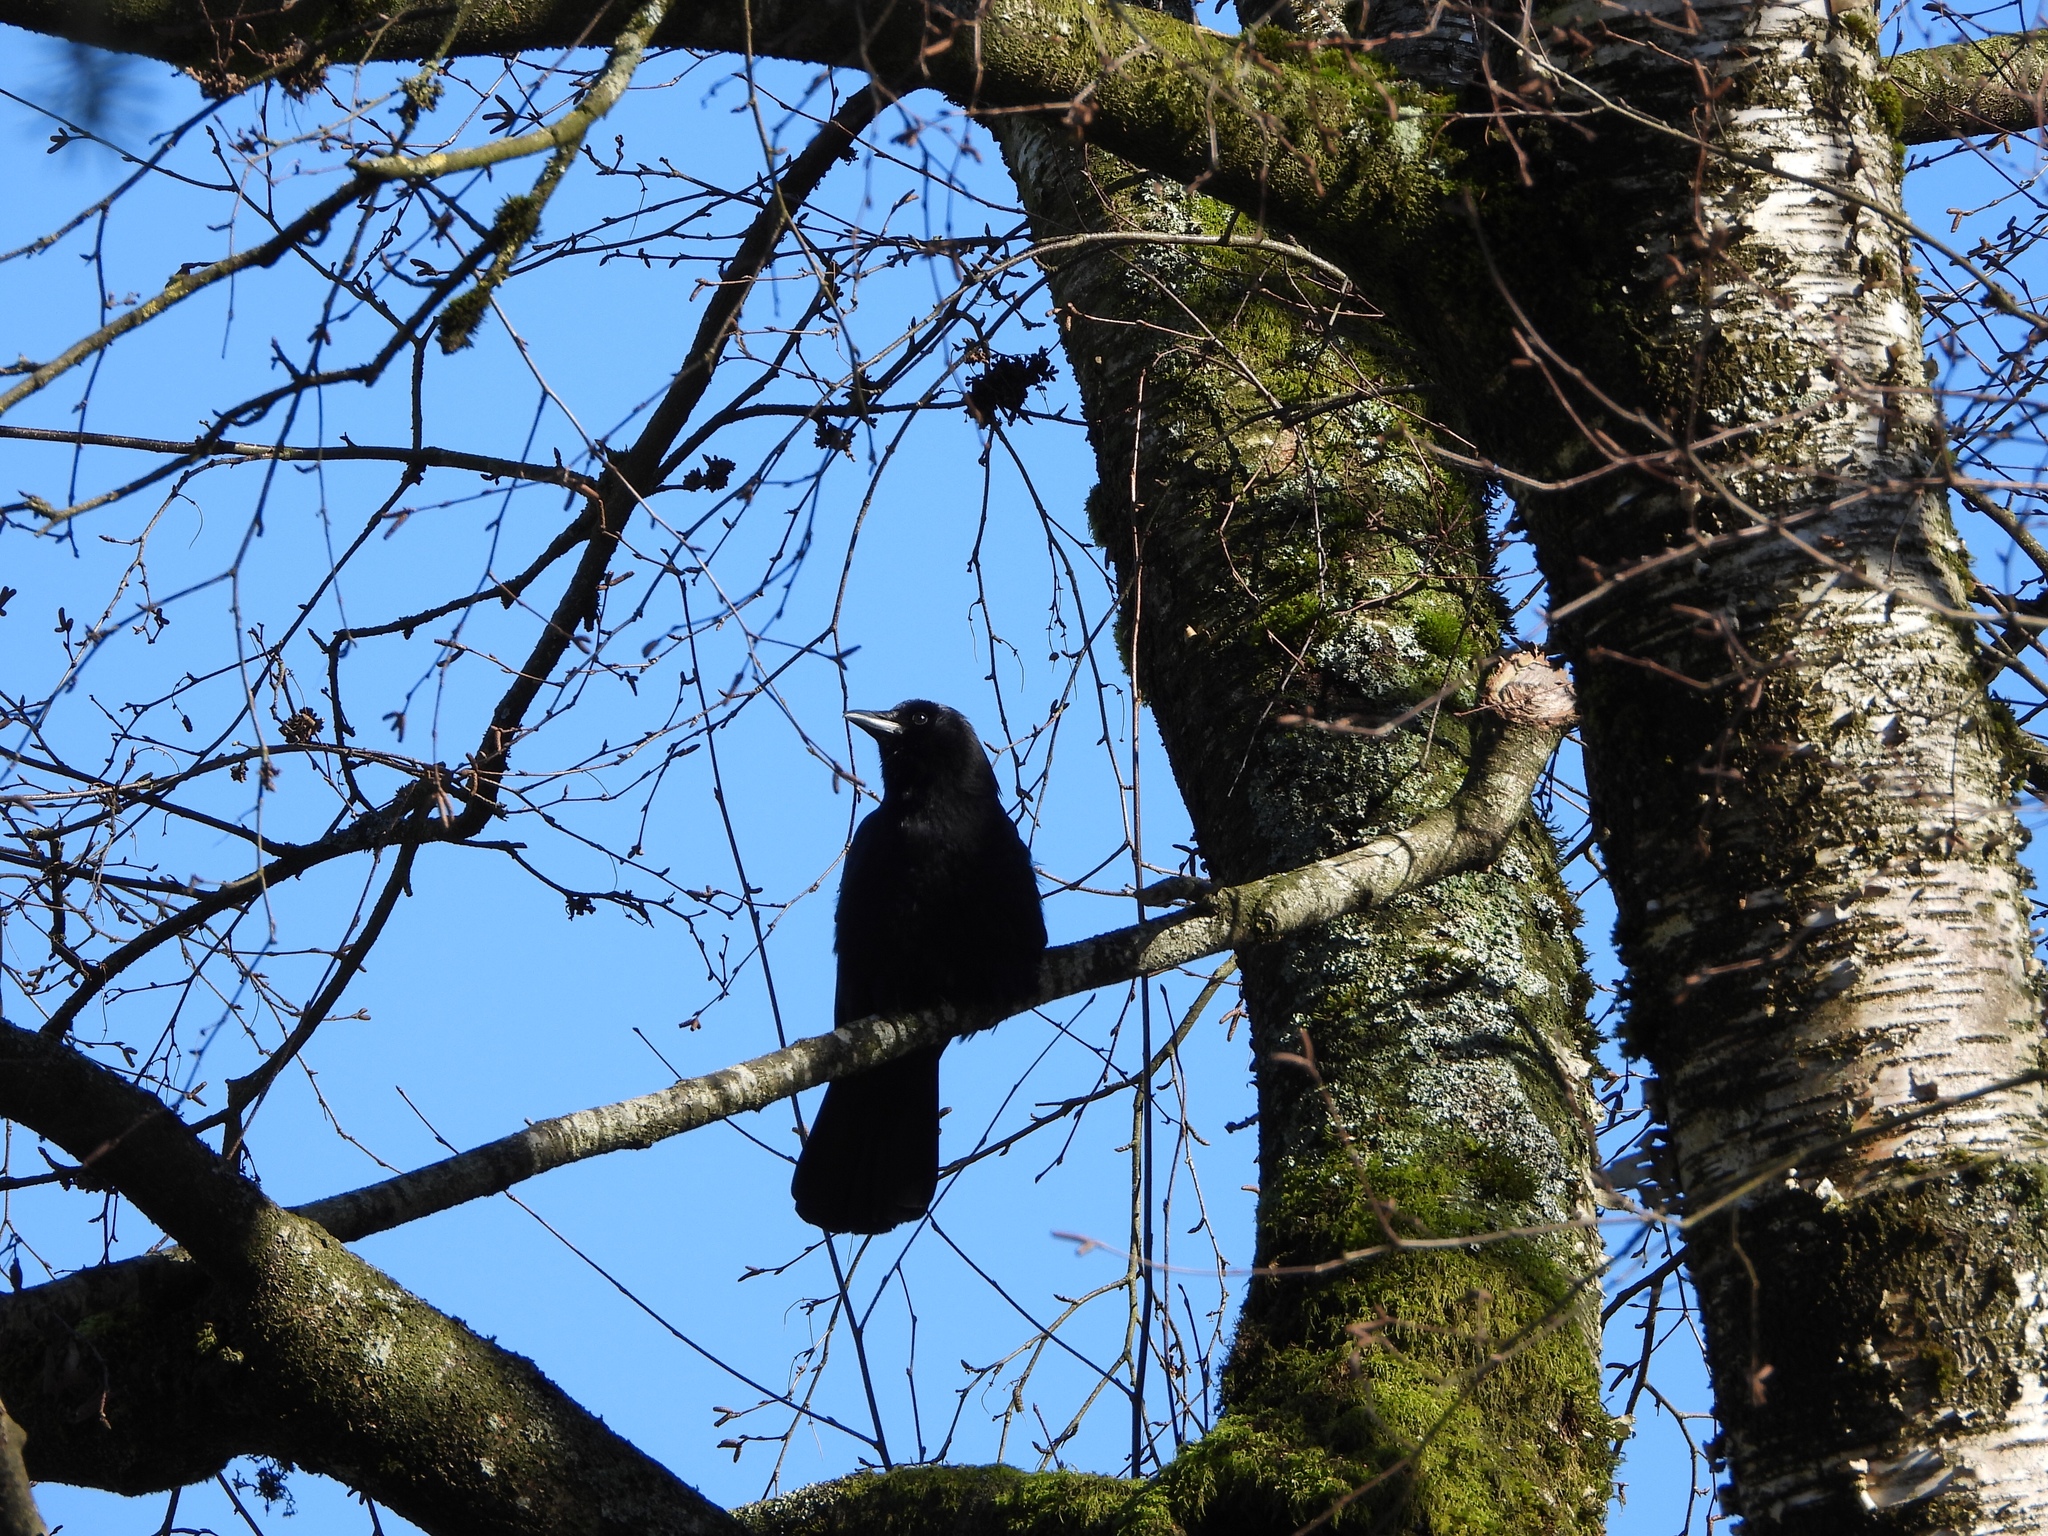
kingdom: Animalia
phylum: Chordata
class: Aves
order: Passeriformes
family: Corvidae
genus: Corvus
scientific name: Corvus brachyrhynchos
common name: American crow
